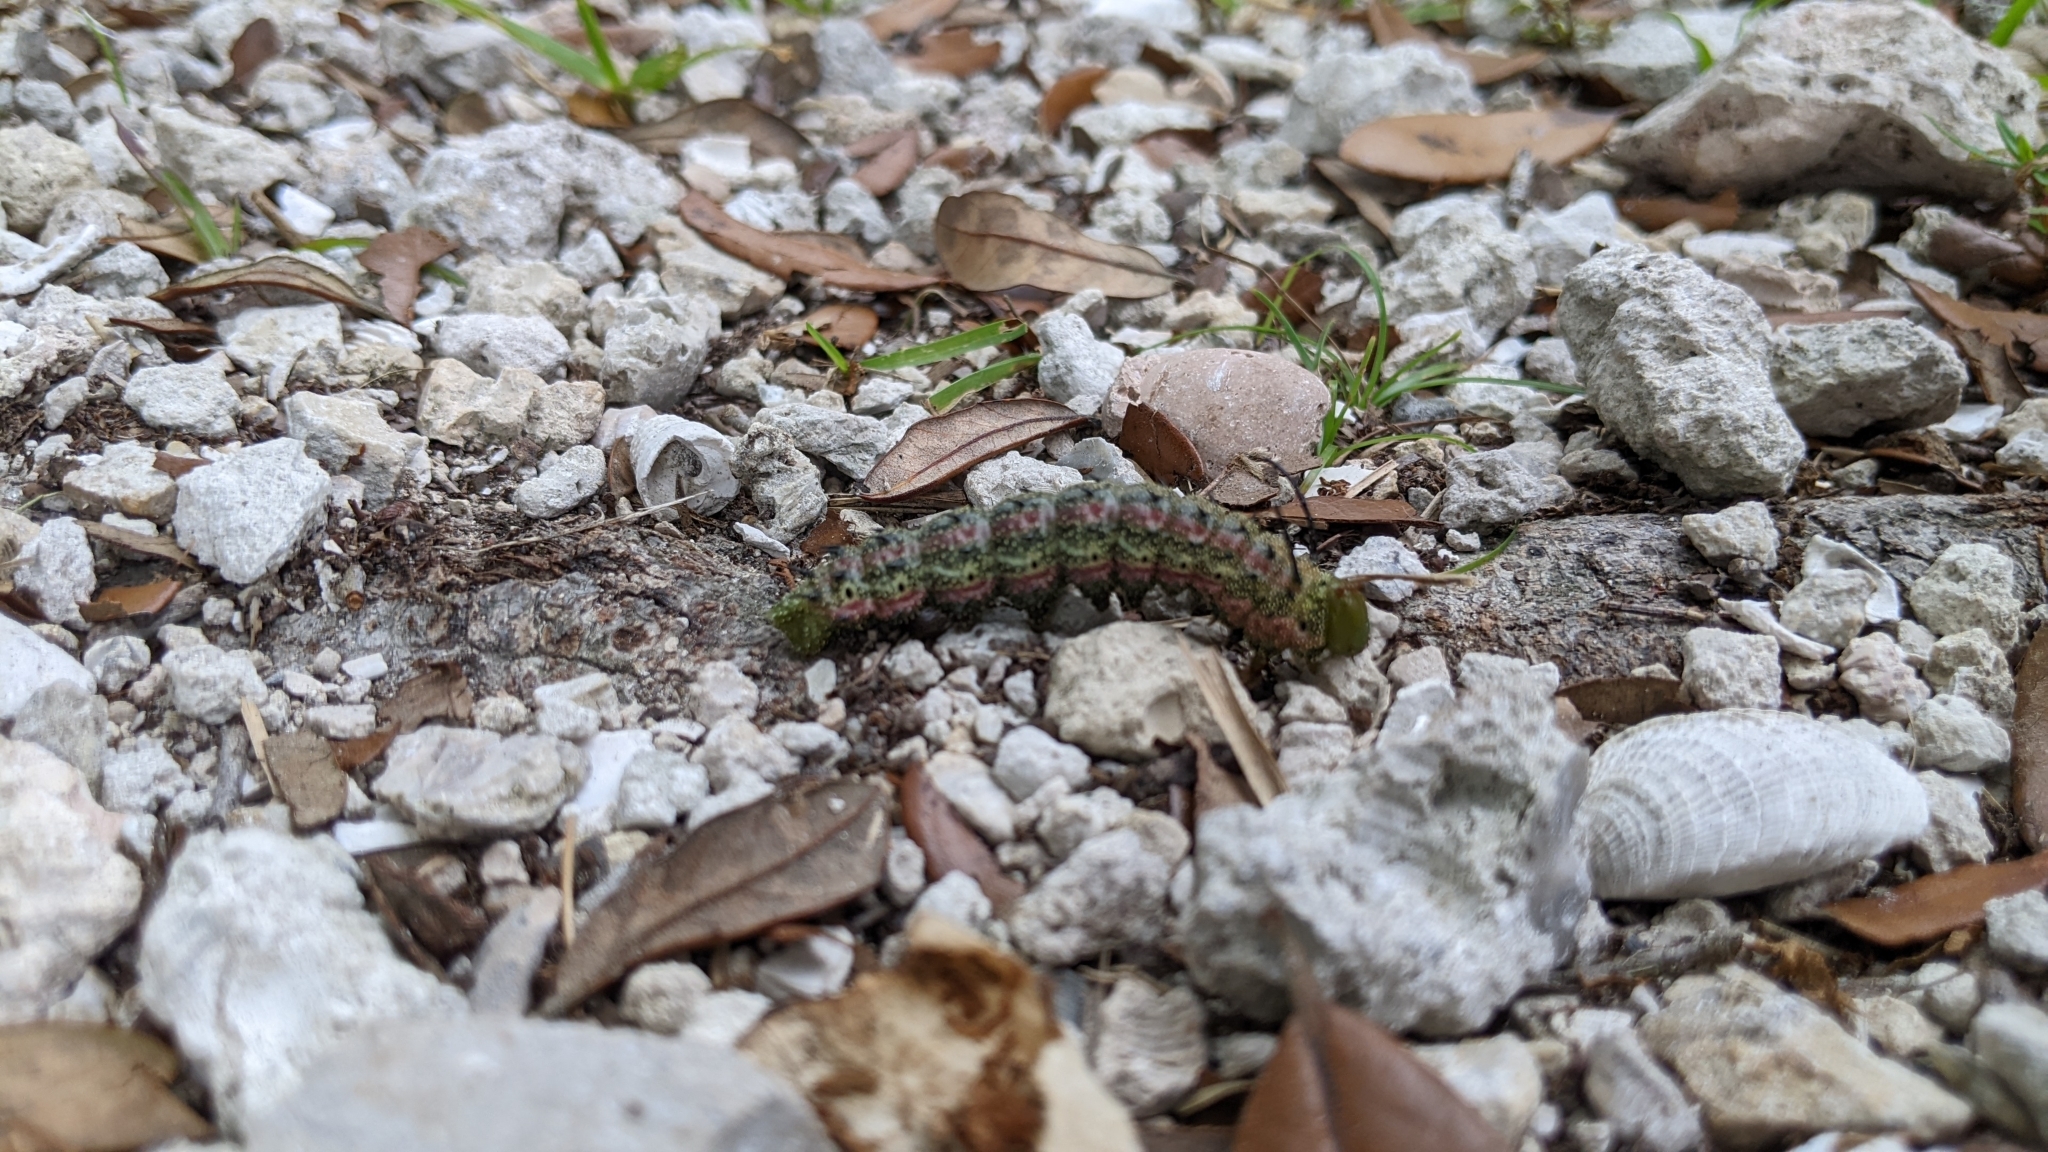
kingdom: Animalia
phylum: Arthropoda
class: Insecta
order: Lepidoptera
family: Saturniidae
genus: Anisota
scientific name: Anisota virginiensis
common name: Pink striped oakworm moth
